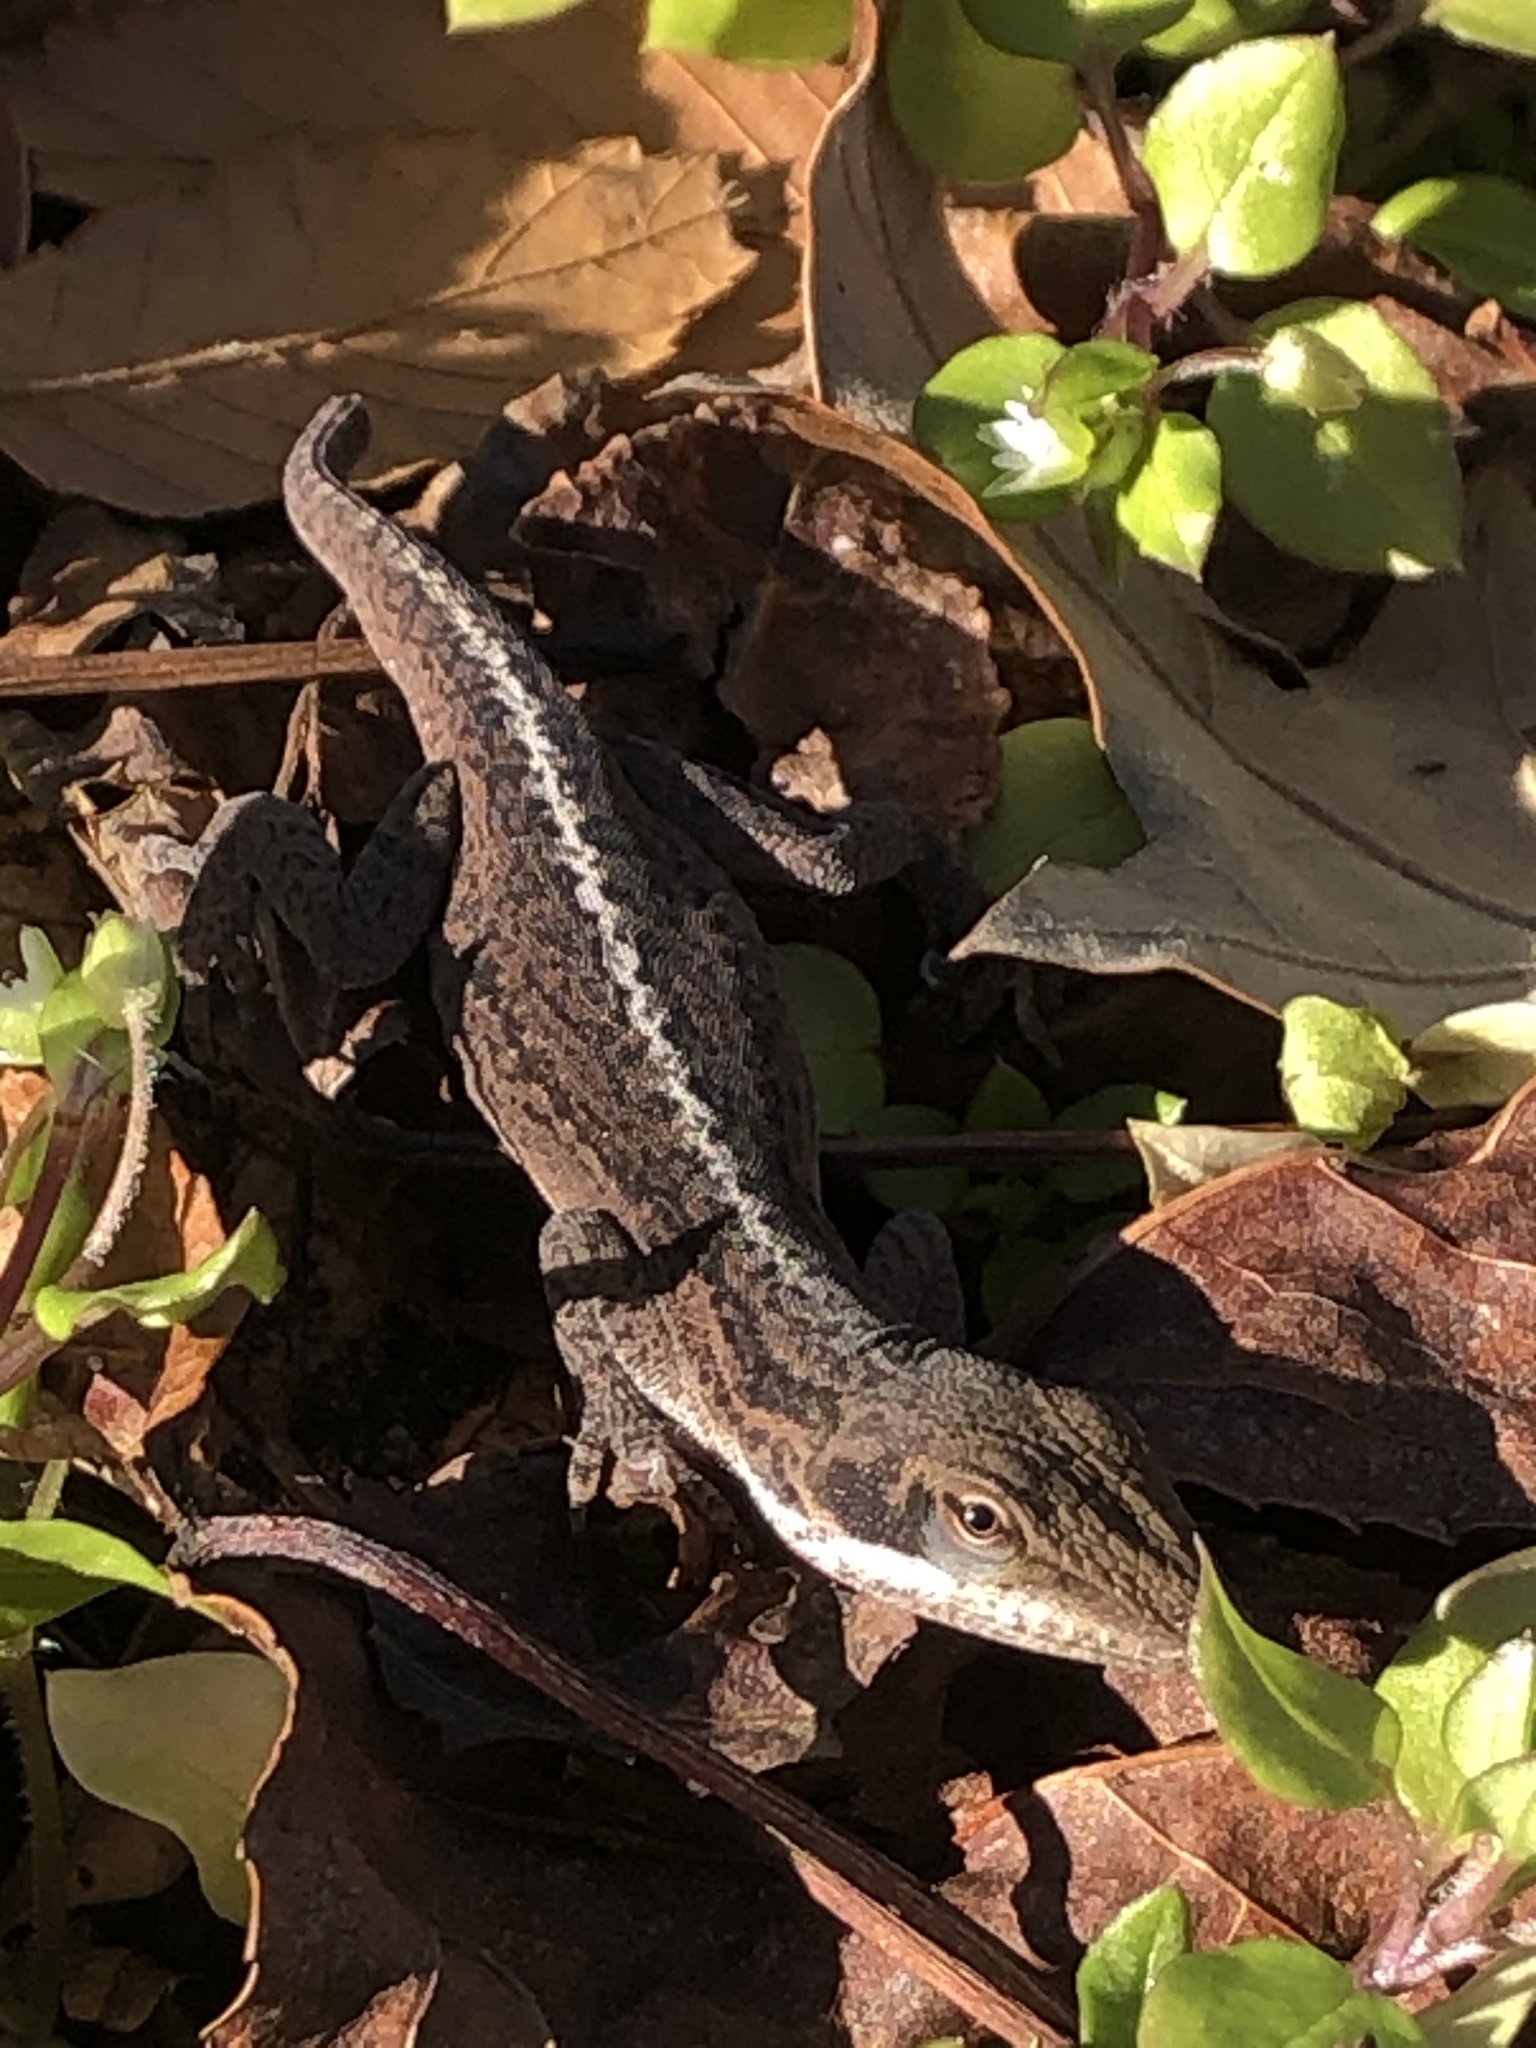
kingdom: Animalia
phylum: Chordata
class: Squamata
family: Dactyloidae
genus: Anolis
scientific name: Anolis carolinensis
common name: Green anole
